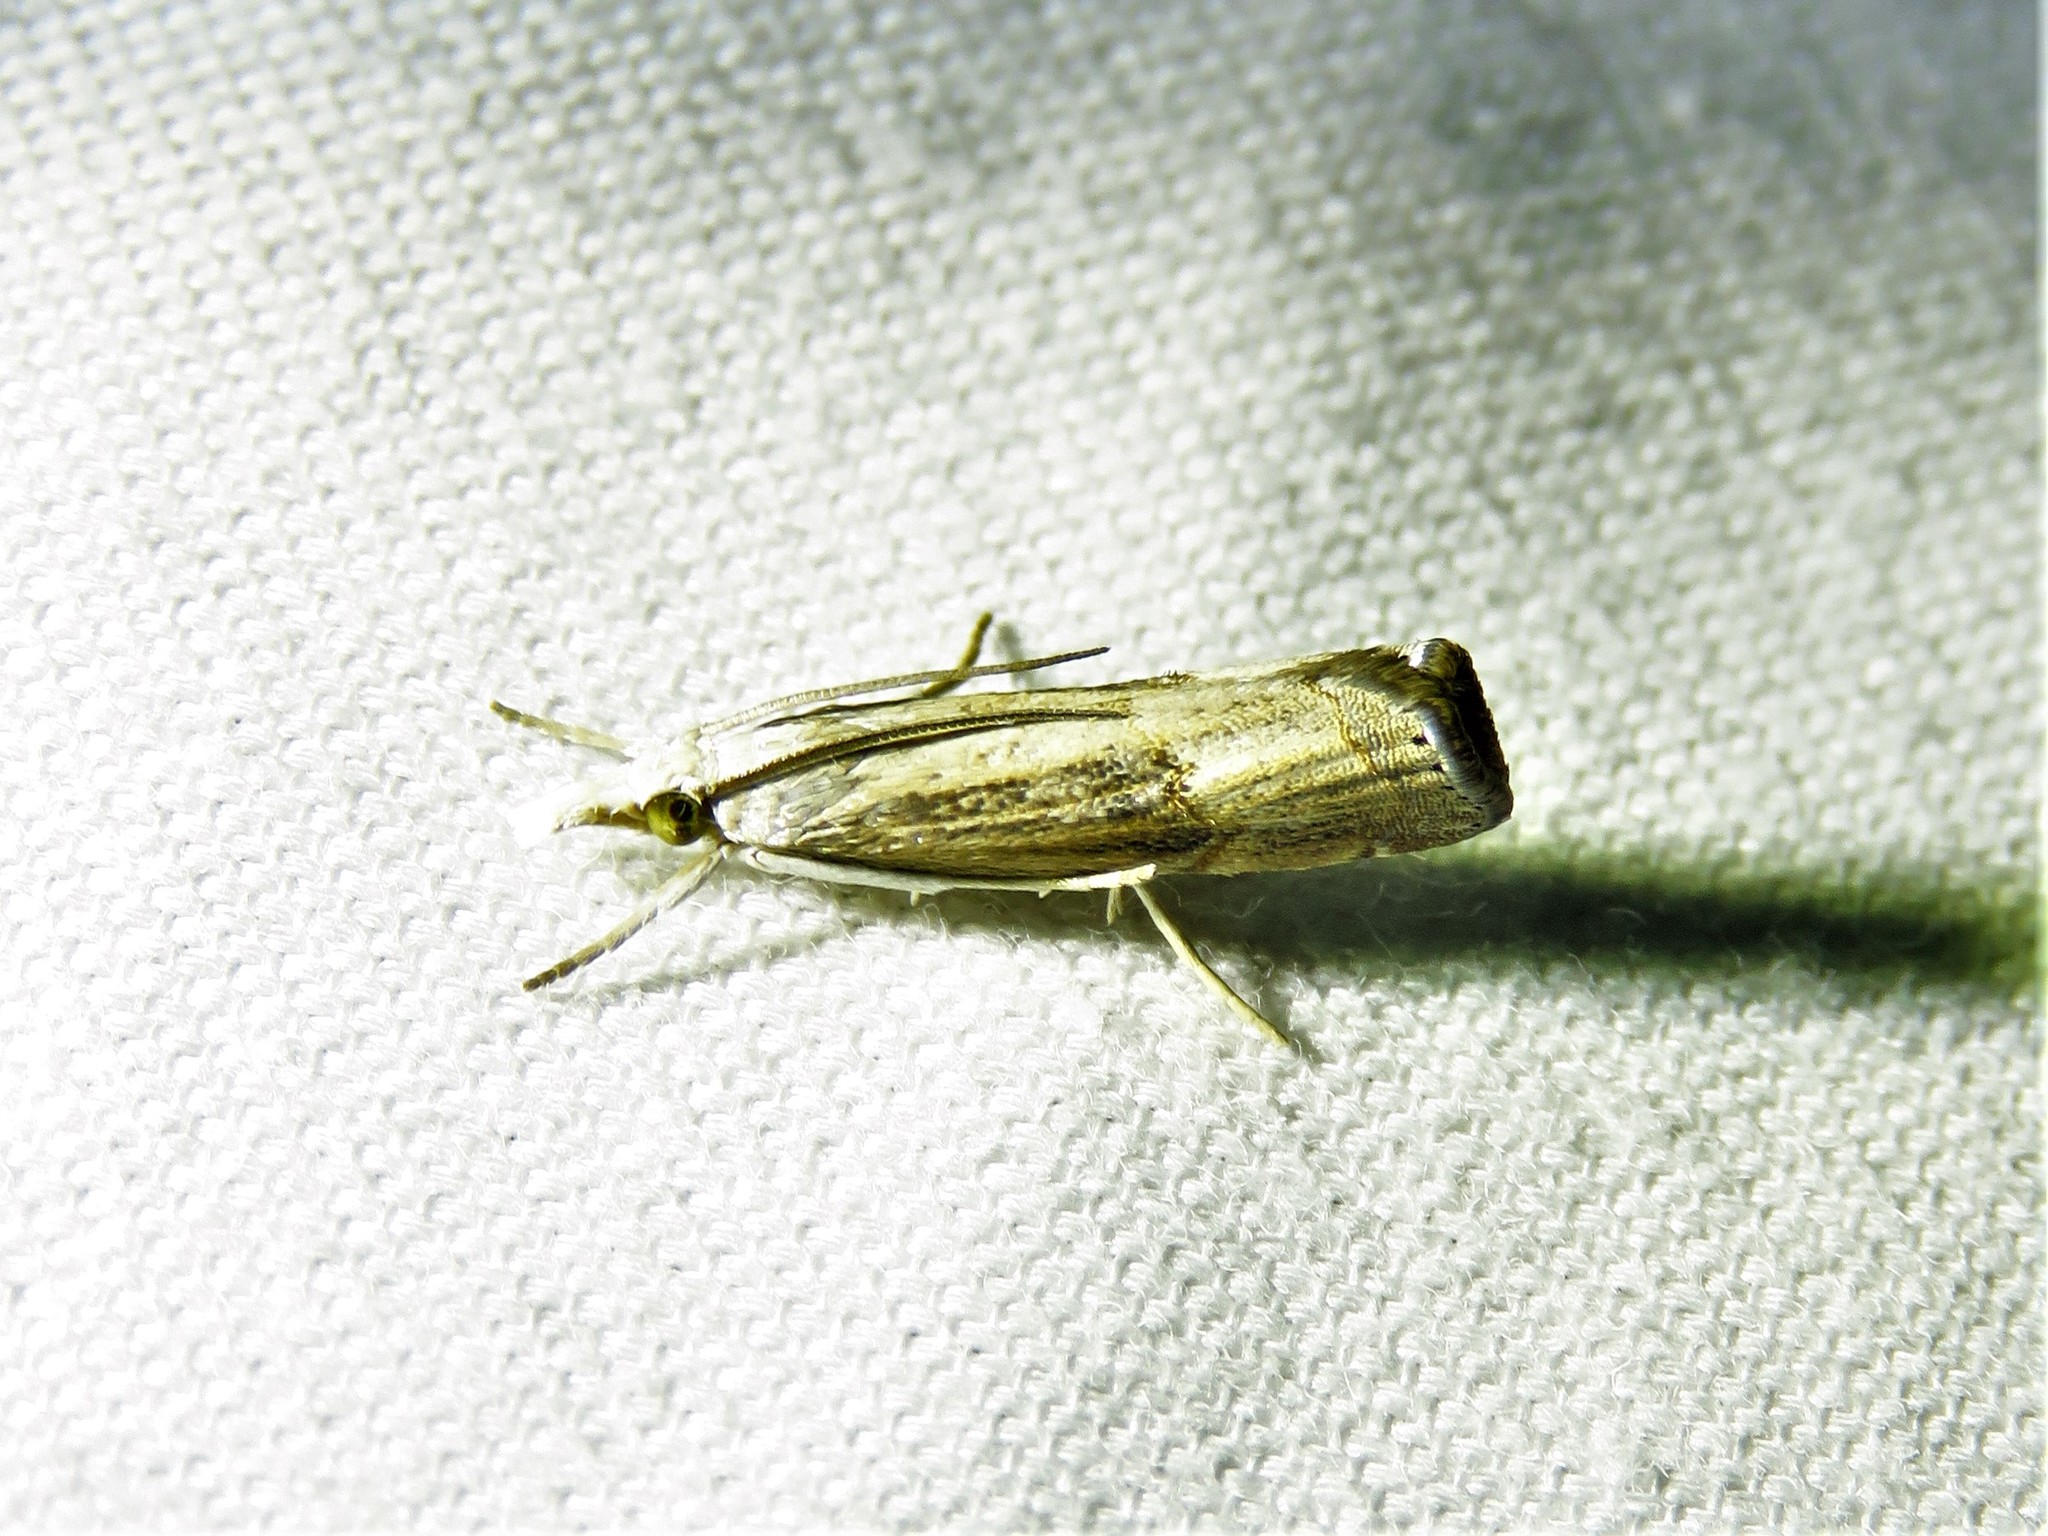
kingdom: Animalia
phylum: Arthropoda
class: Insecta
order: Lepidoptera
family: Crambidae
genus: Parapediasia
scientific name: Parapediasia teterellus
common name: Bluegrass webworm moth
